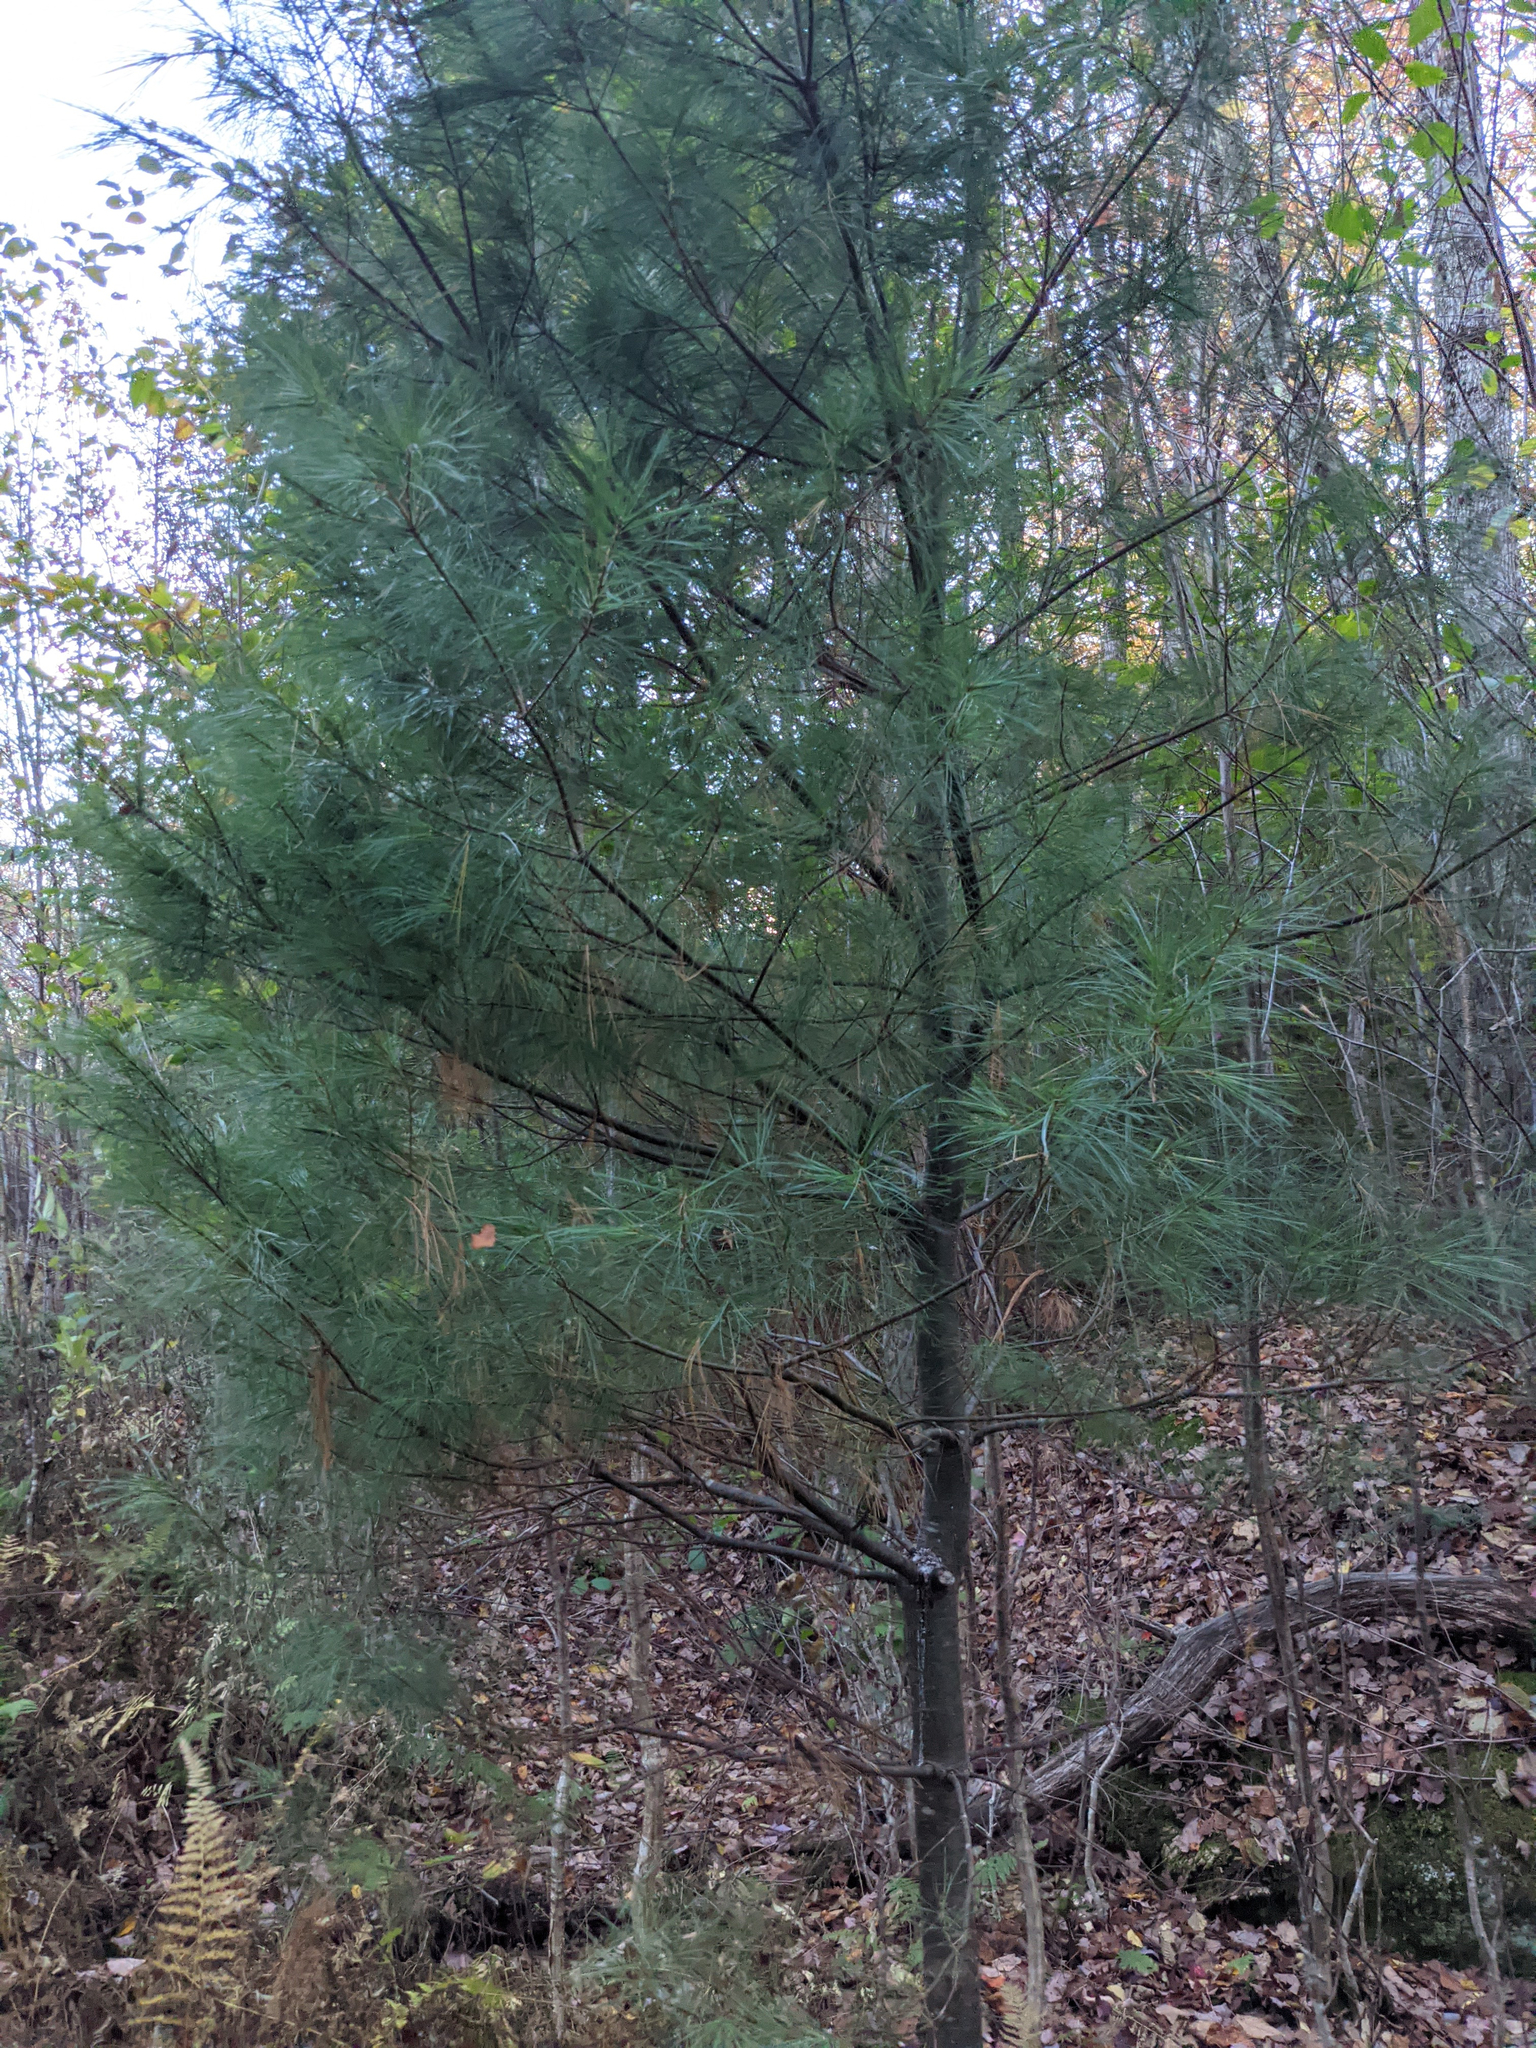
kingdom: Plantae
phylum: Tracheophyta
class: Pinopsida
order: Pinales
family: Pinaceae
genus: Pinus
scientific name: Pinus strobus
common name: Weymouth pine
